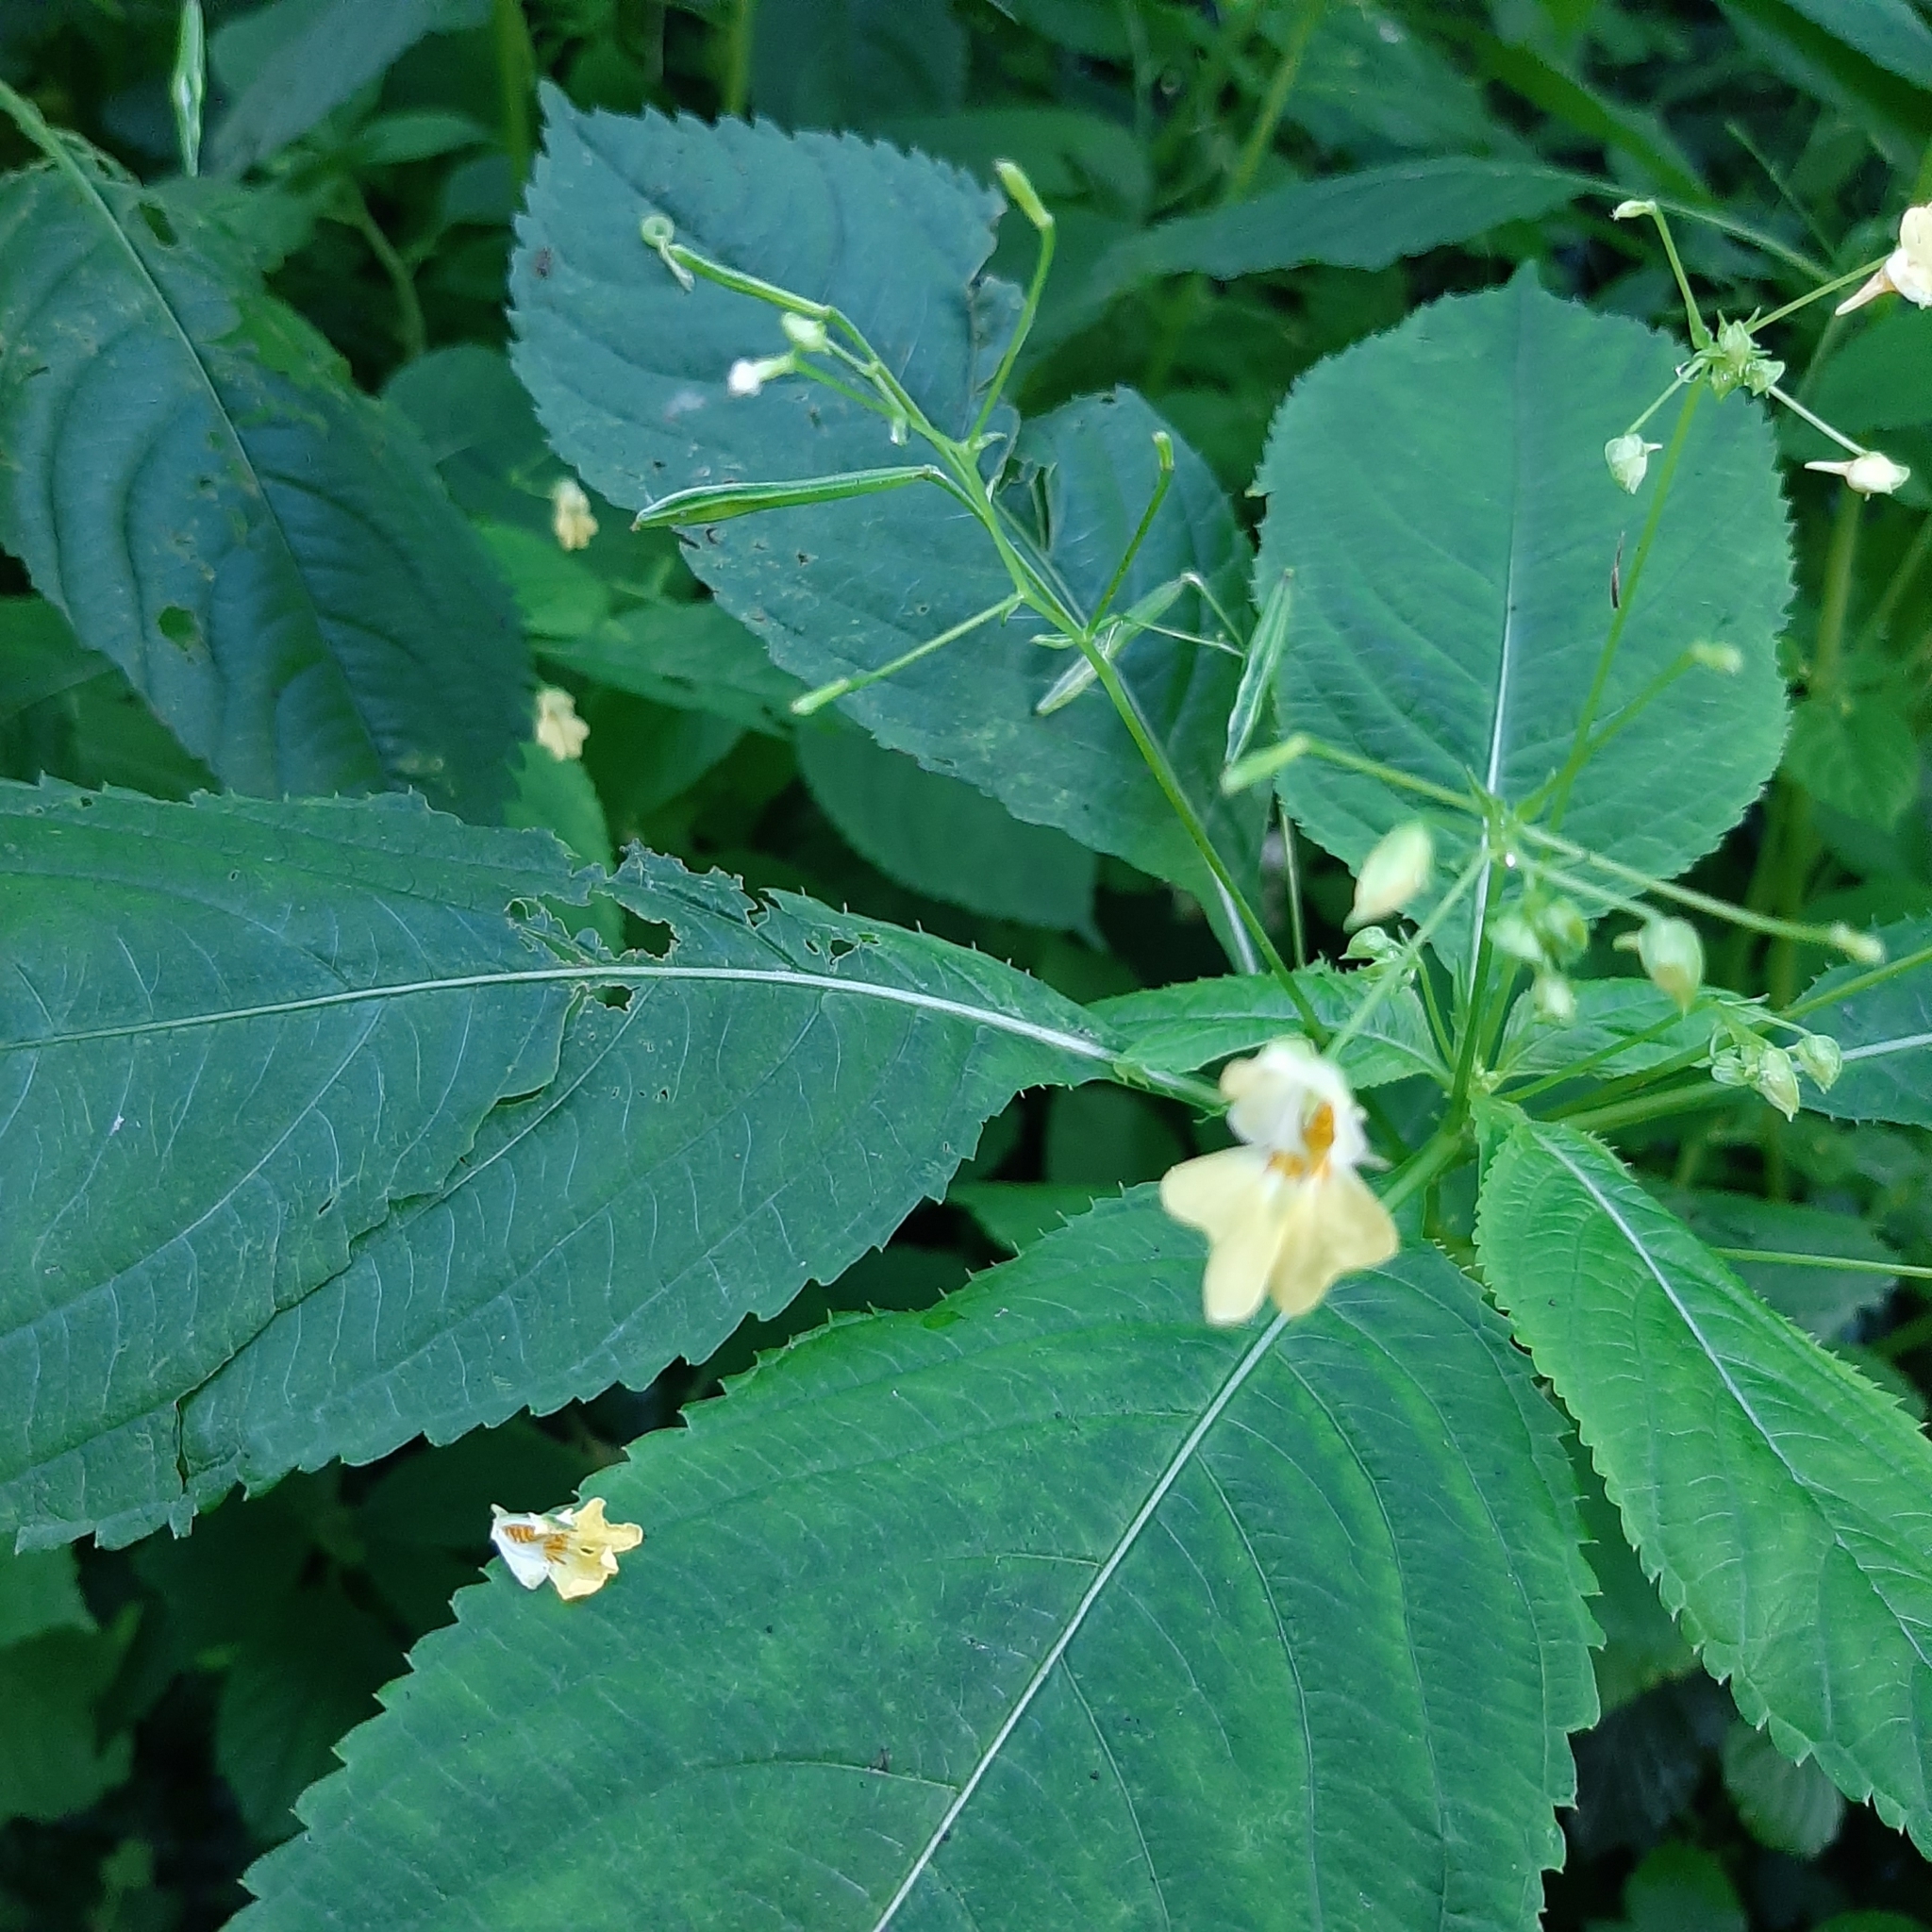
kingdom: Plantae
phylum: Tracheophyta
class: Magnoliopsida
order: Ericales
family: Balsaminaceae
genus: Impatiens
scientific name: Impatiens parviflora
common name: Small balsam
